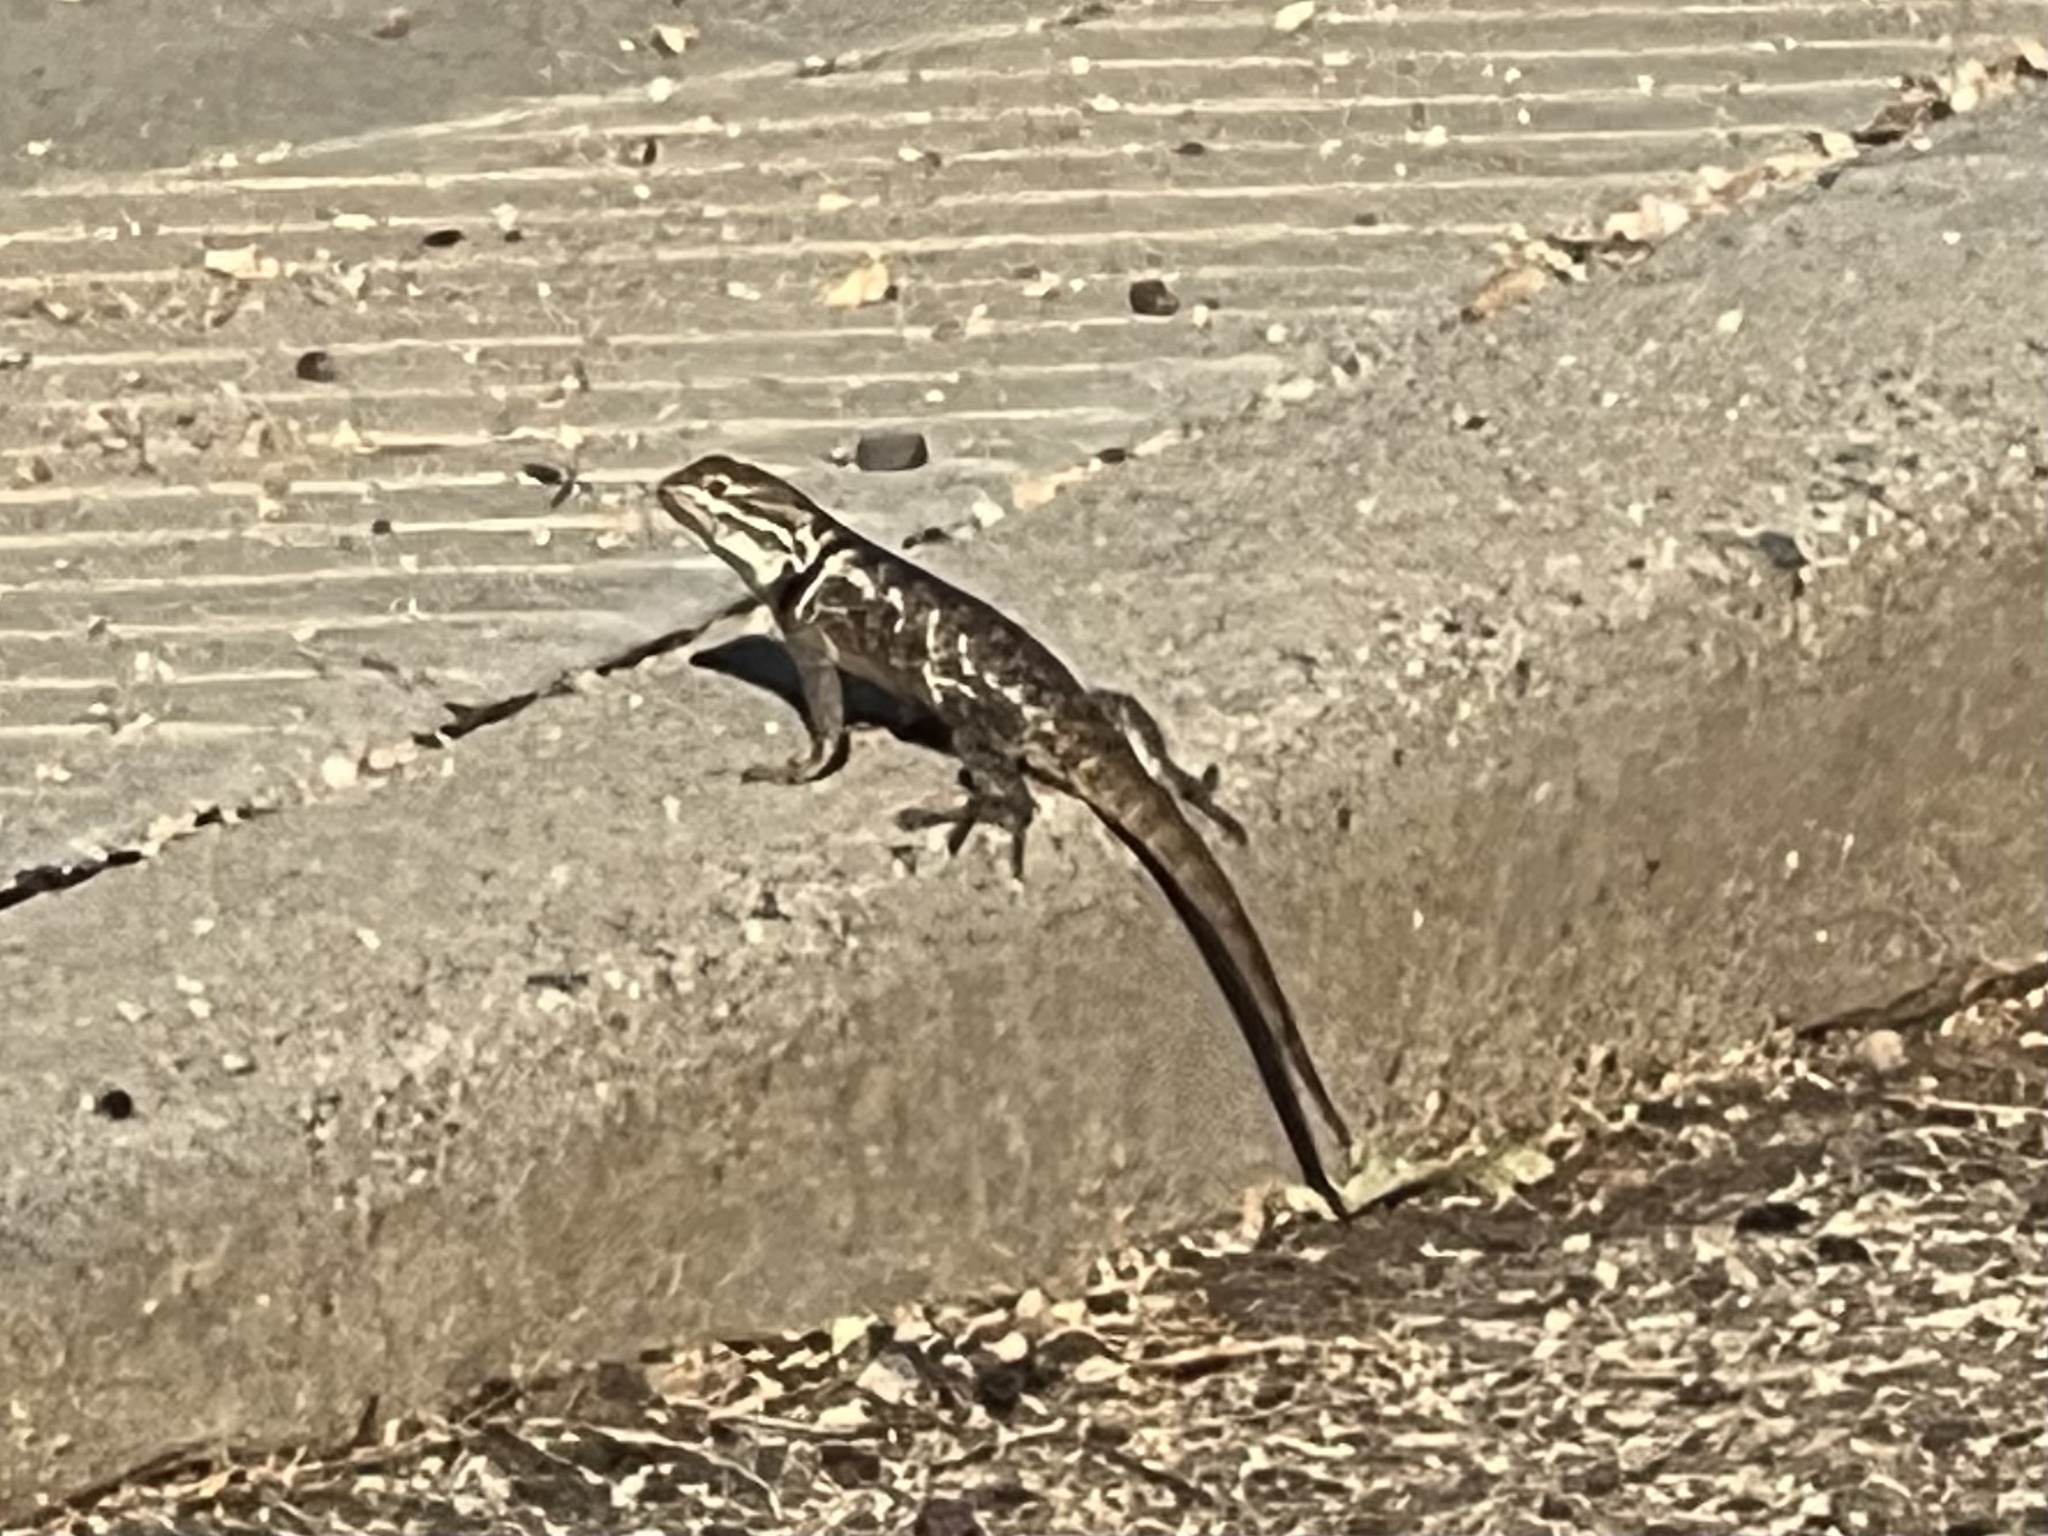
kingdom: Animalia
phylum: Chordata
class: Squamata
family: Phrynosomatidae
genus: Sceloporus
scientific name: Sceloporus magister
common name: Desert spiny lizard
